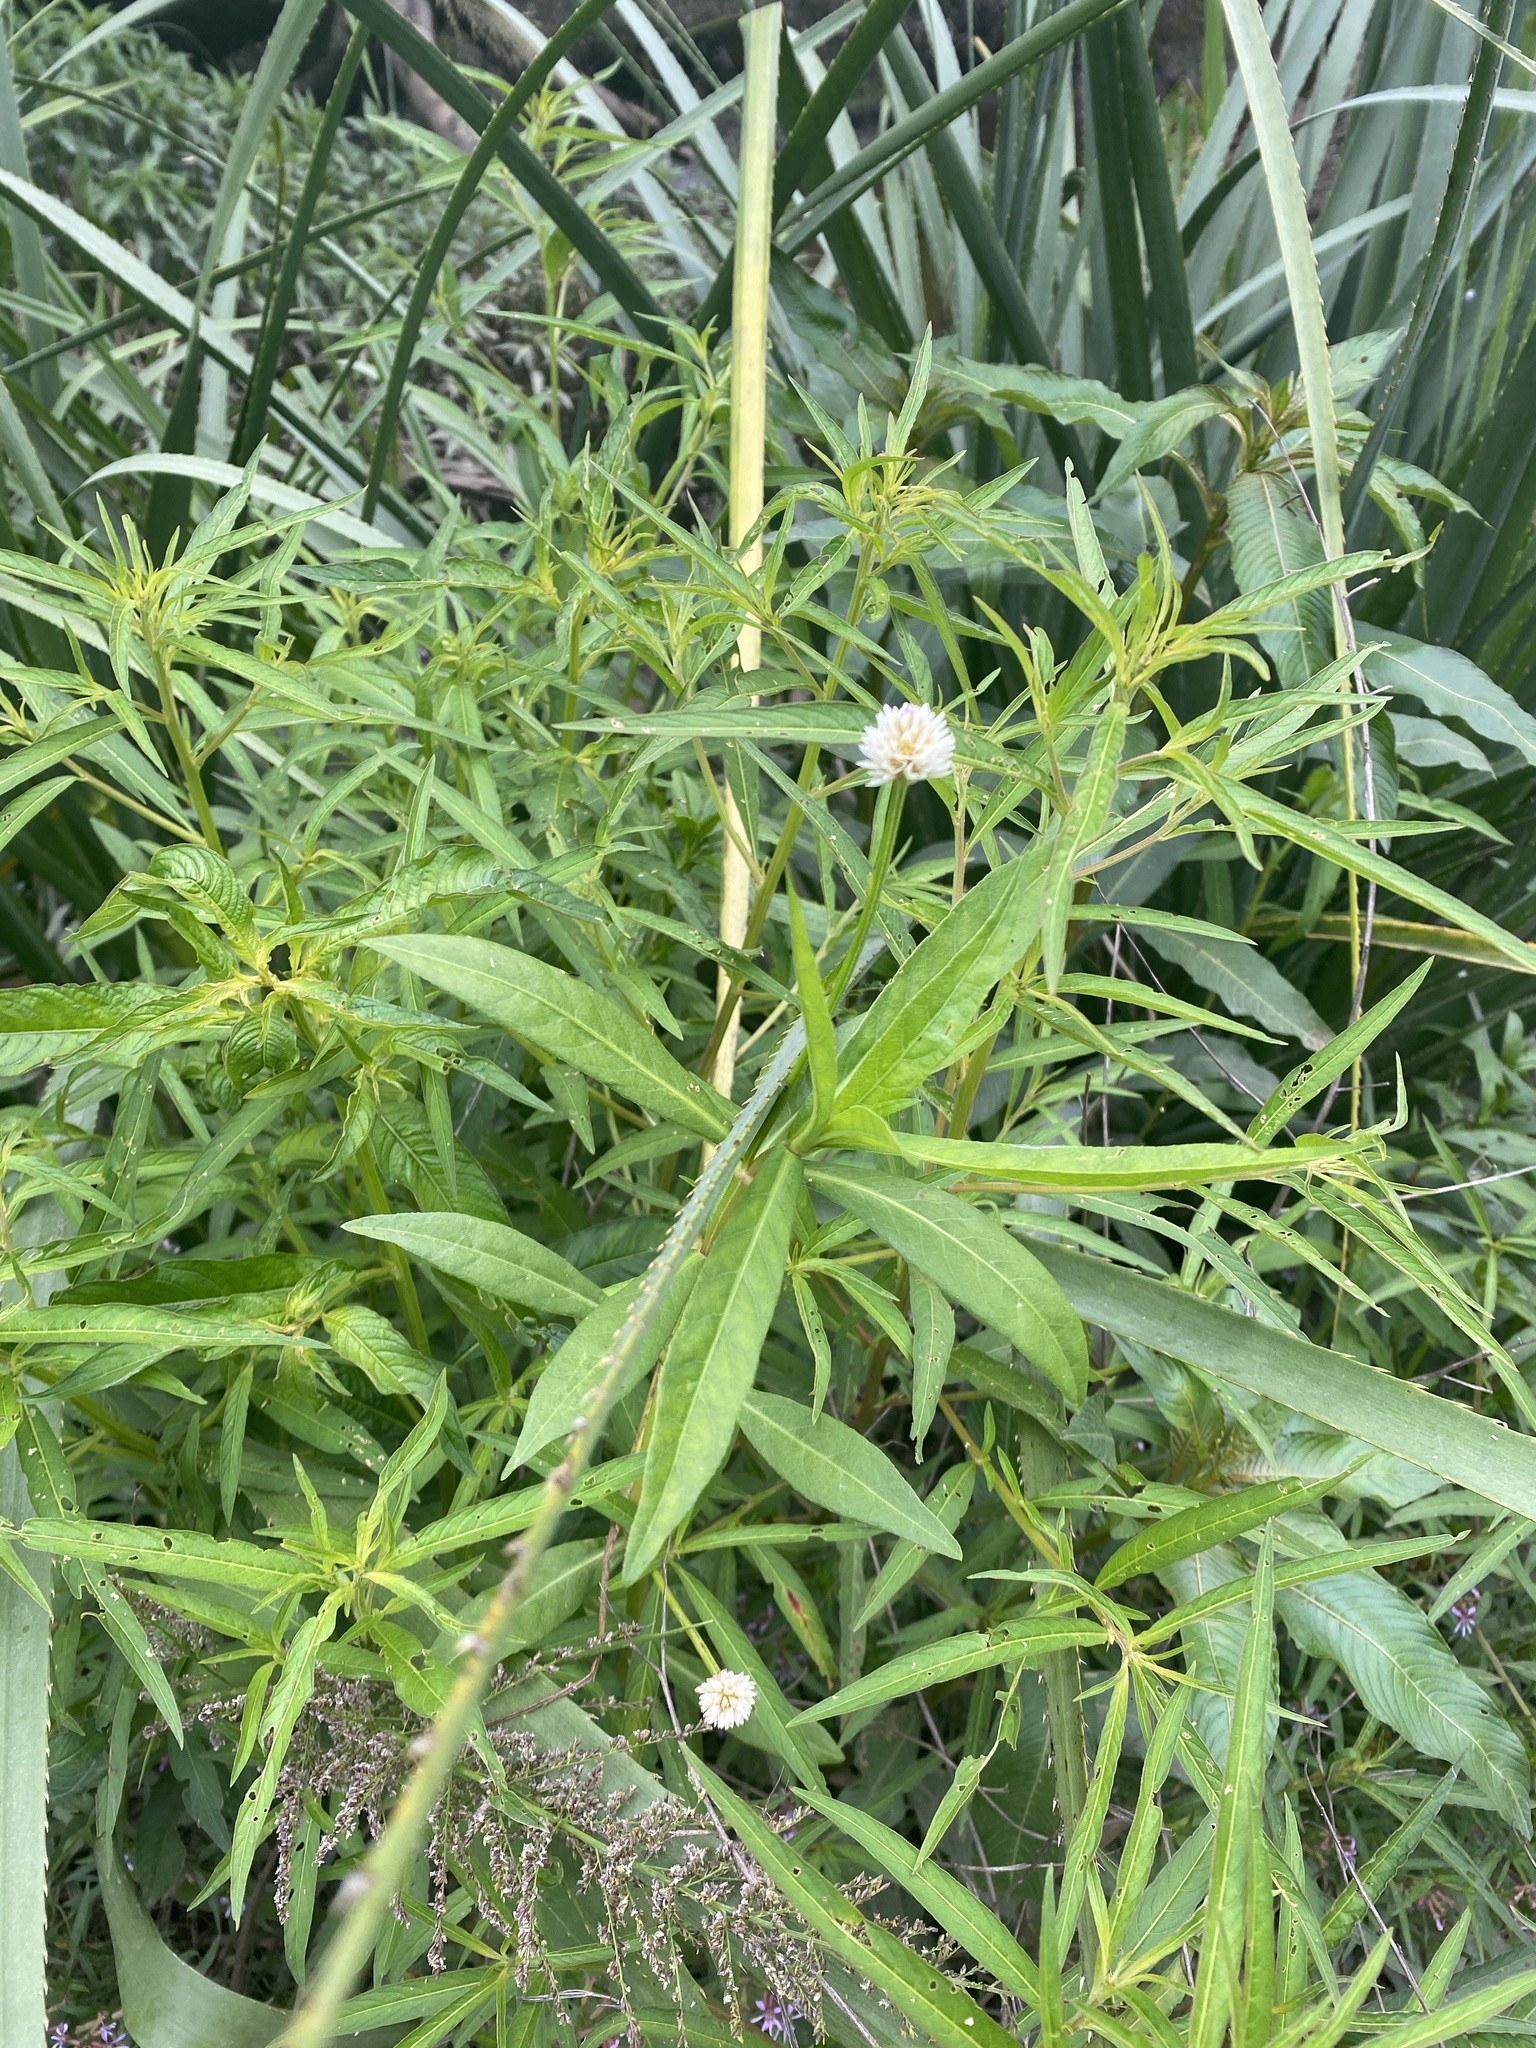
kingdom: Plantae
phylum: Tracheophyta
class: Magnoliopsida
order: Caryophyllales
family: Amaranthaceae
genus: Alternanthera
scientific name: Alternanthera philoxeroides
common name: Alligatorweed
